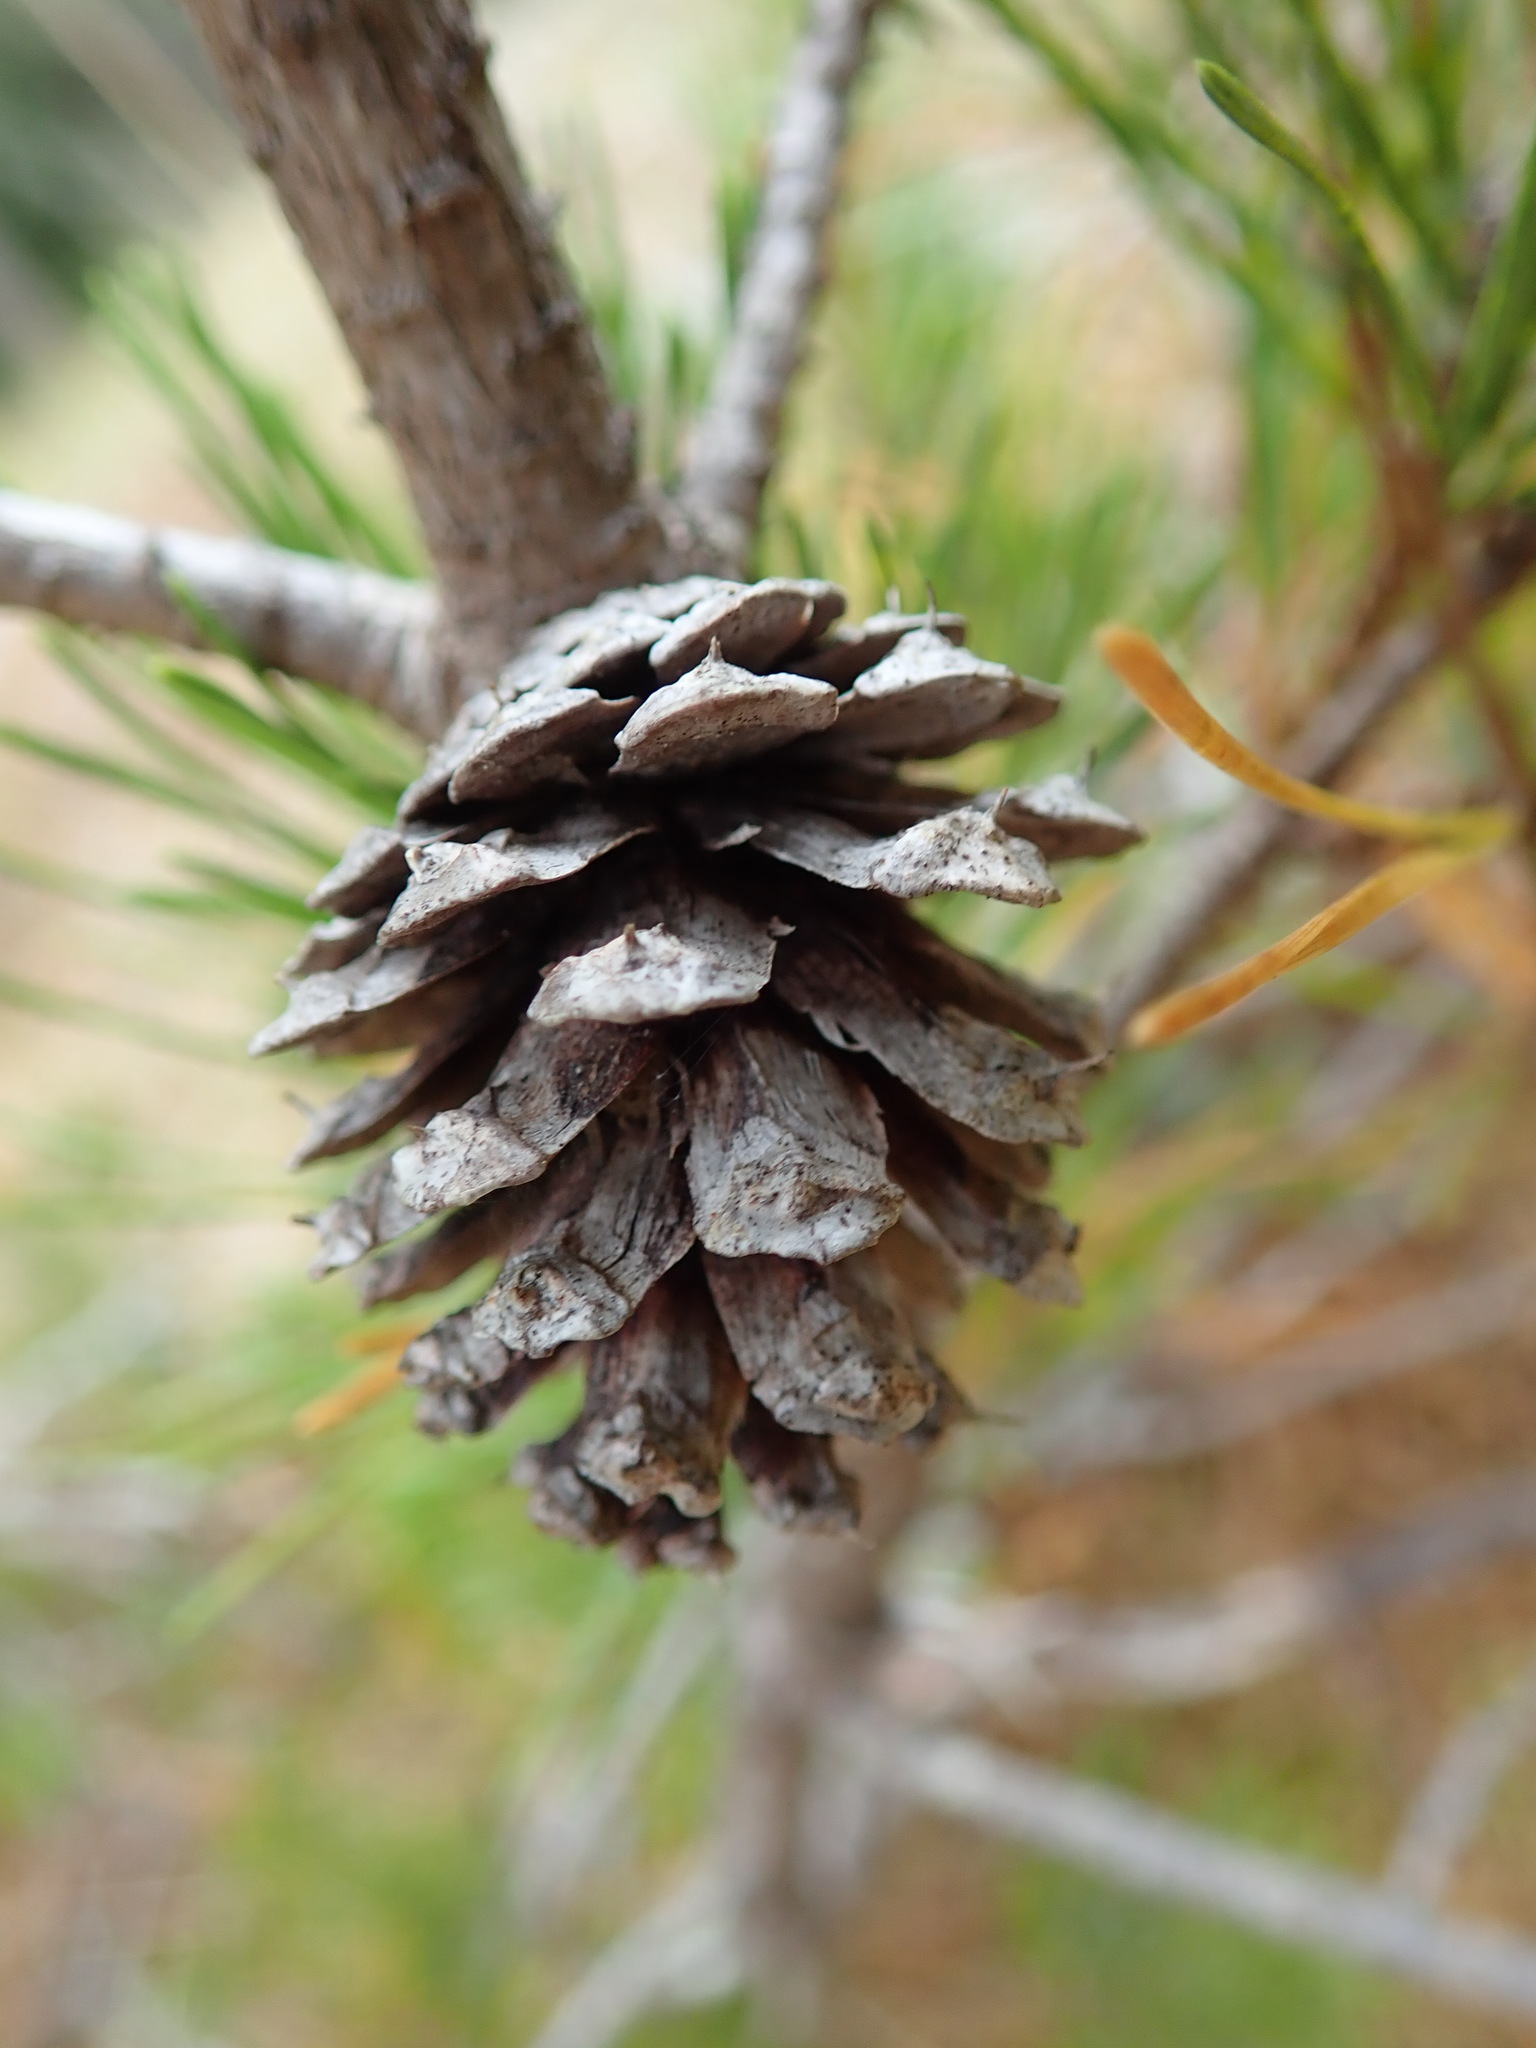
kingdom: Plantae
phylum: Tracheophyta
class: Pinopsida
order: Pinales
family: Pinaceae
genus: Pinus
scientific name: Pinus contorta
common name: Lodgepole pine
